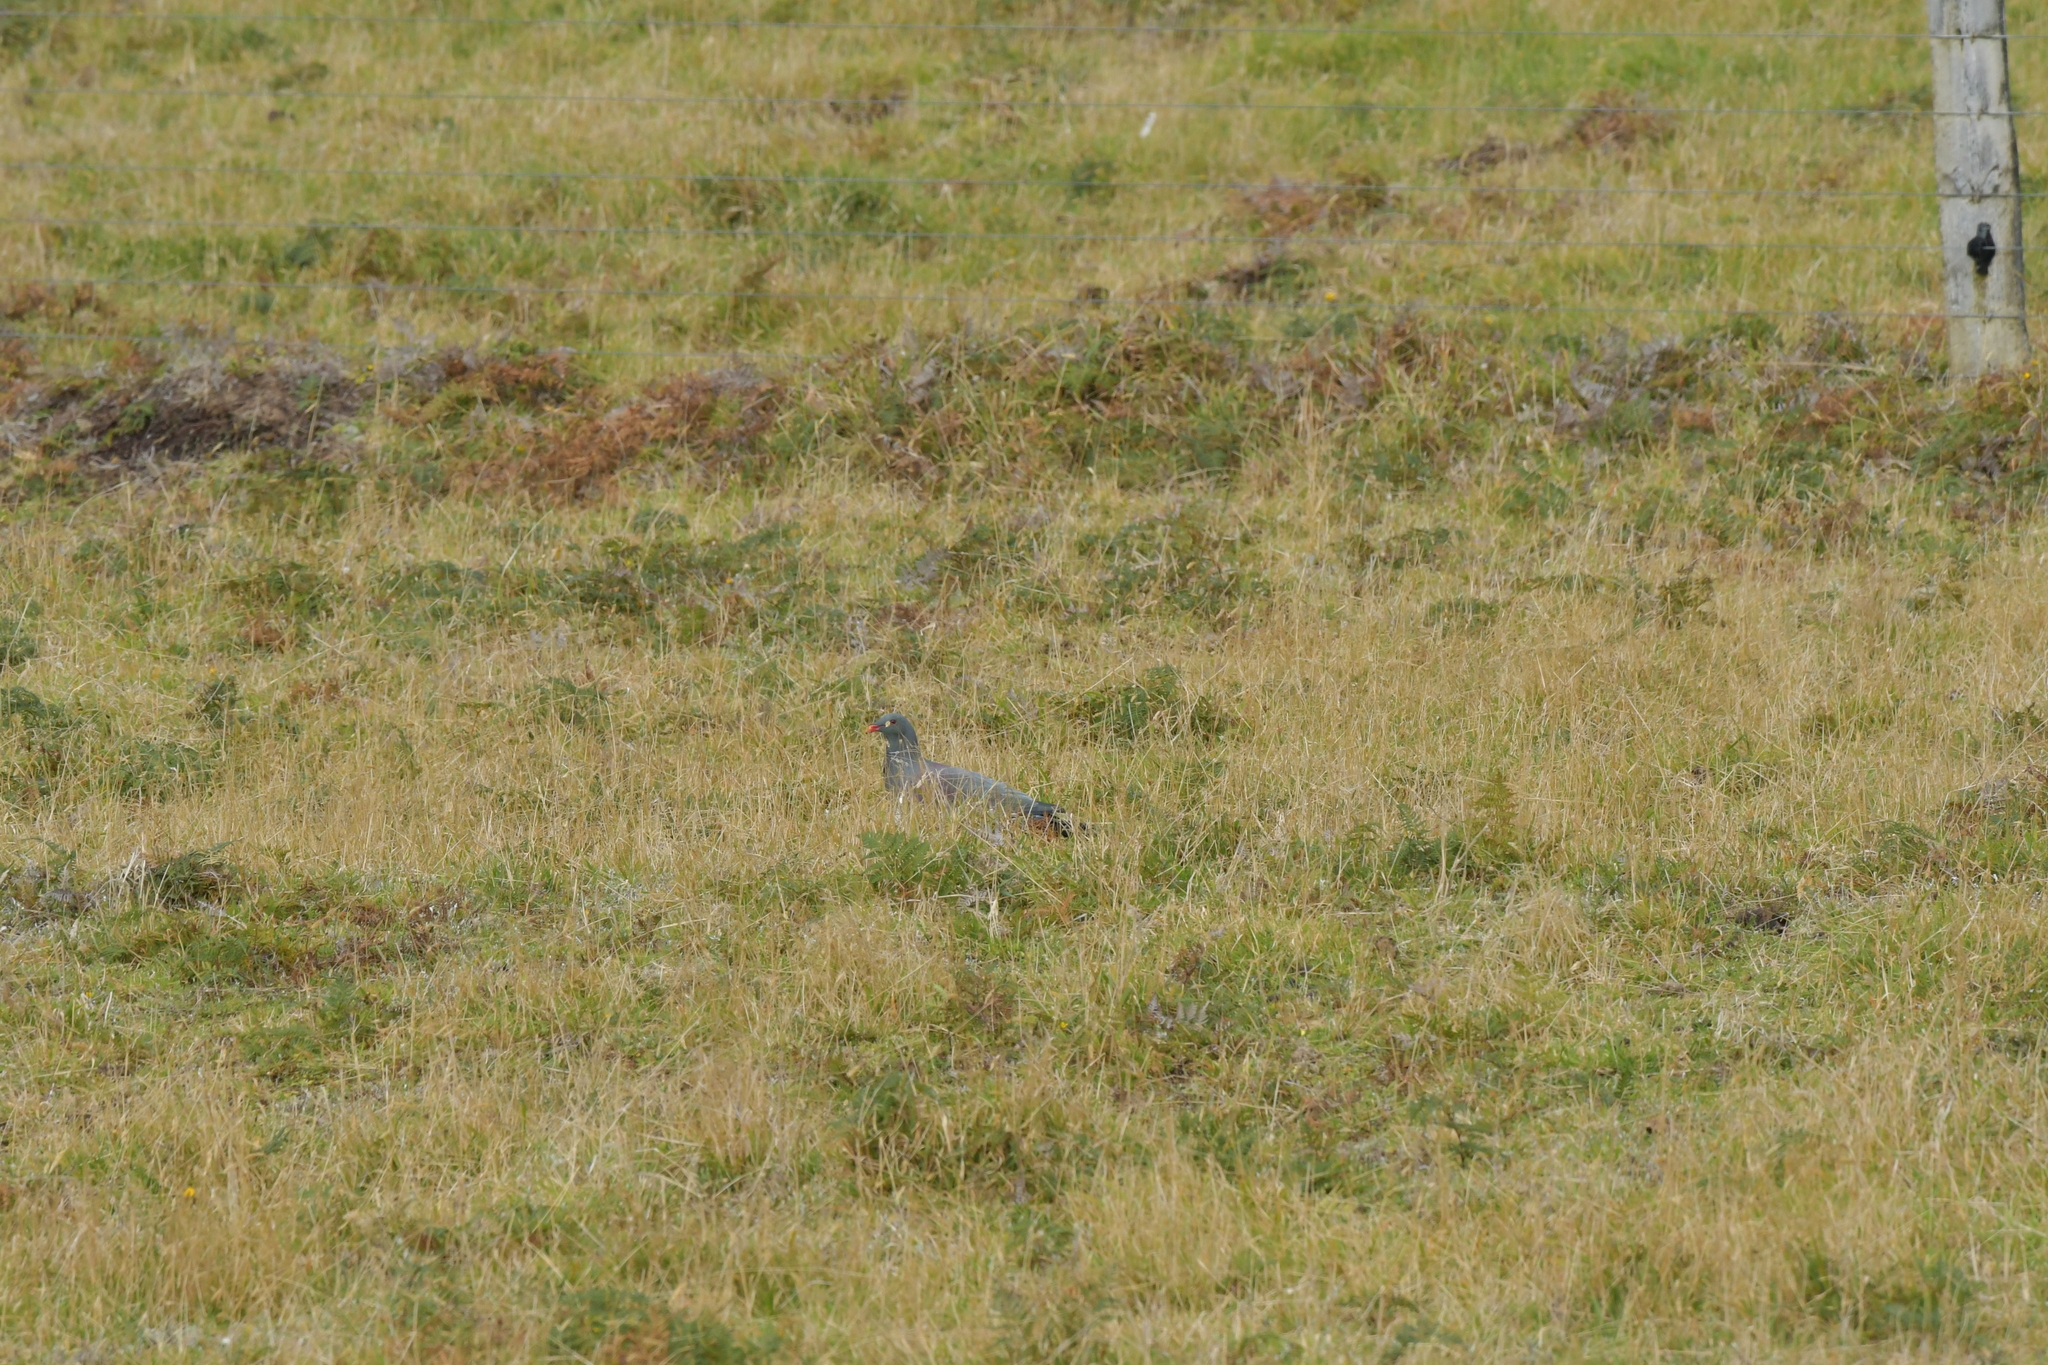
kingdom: Animalia
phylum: Chordata
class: Aves
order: Columbiformes
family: Columbidae
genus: Hemiphaga
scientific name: Hemiphaga chathamensis
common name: Chatham pigeon
